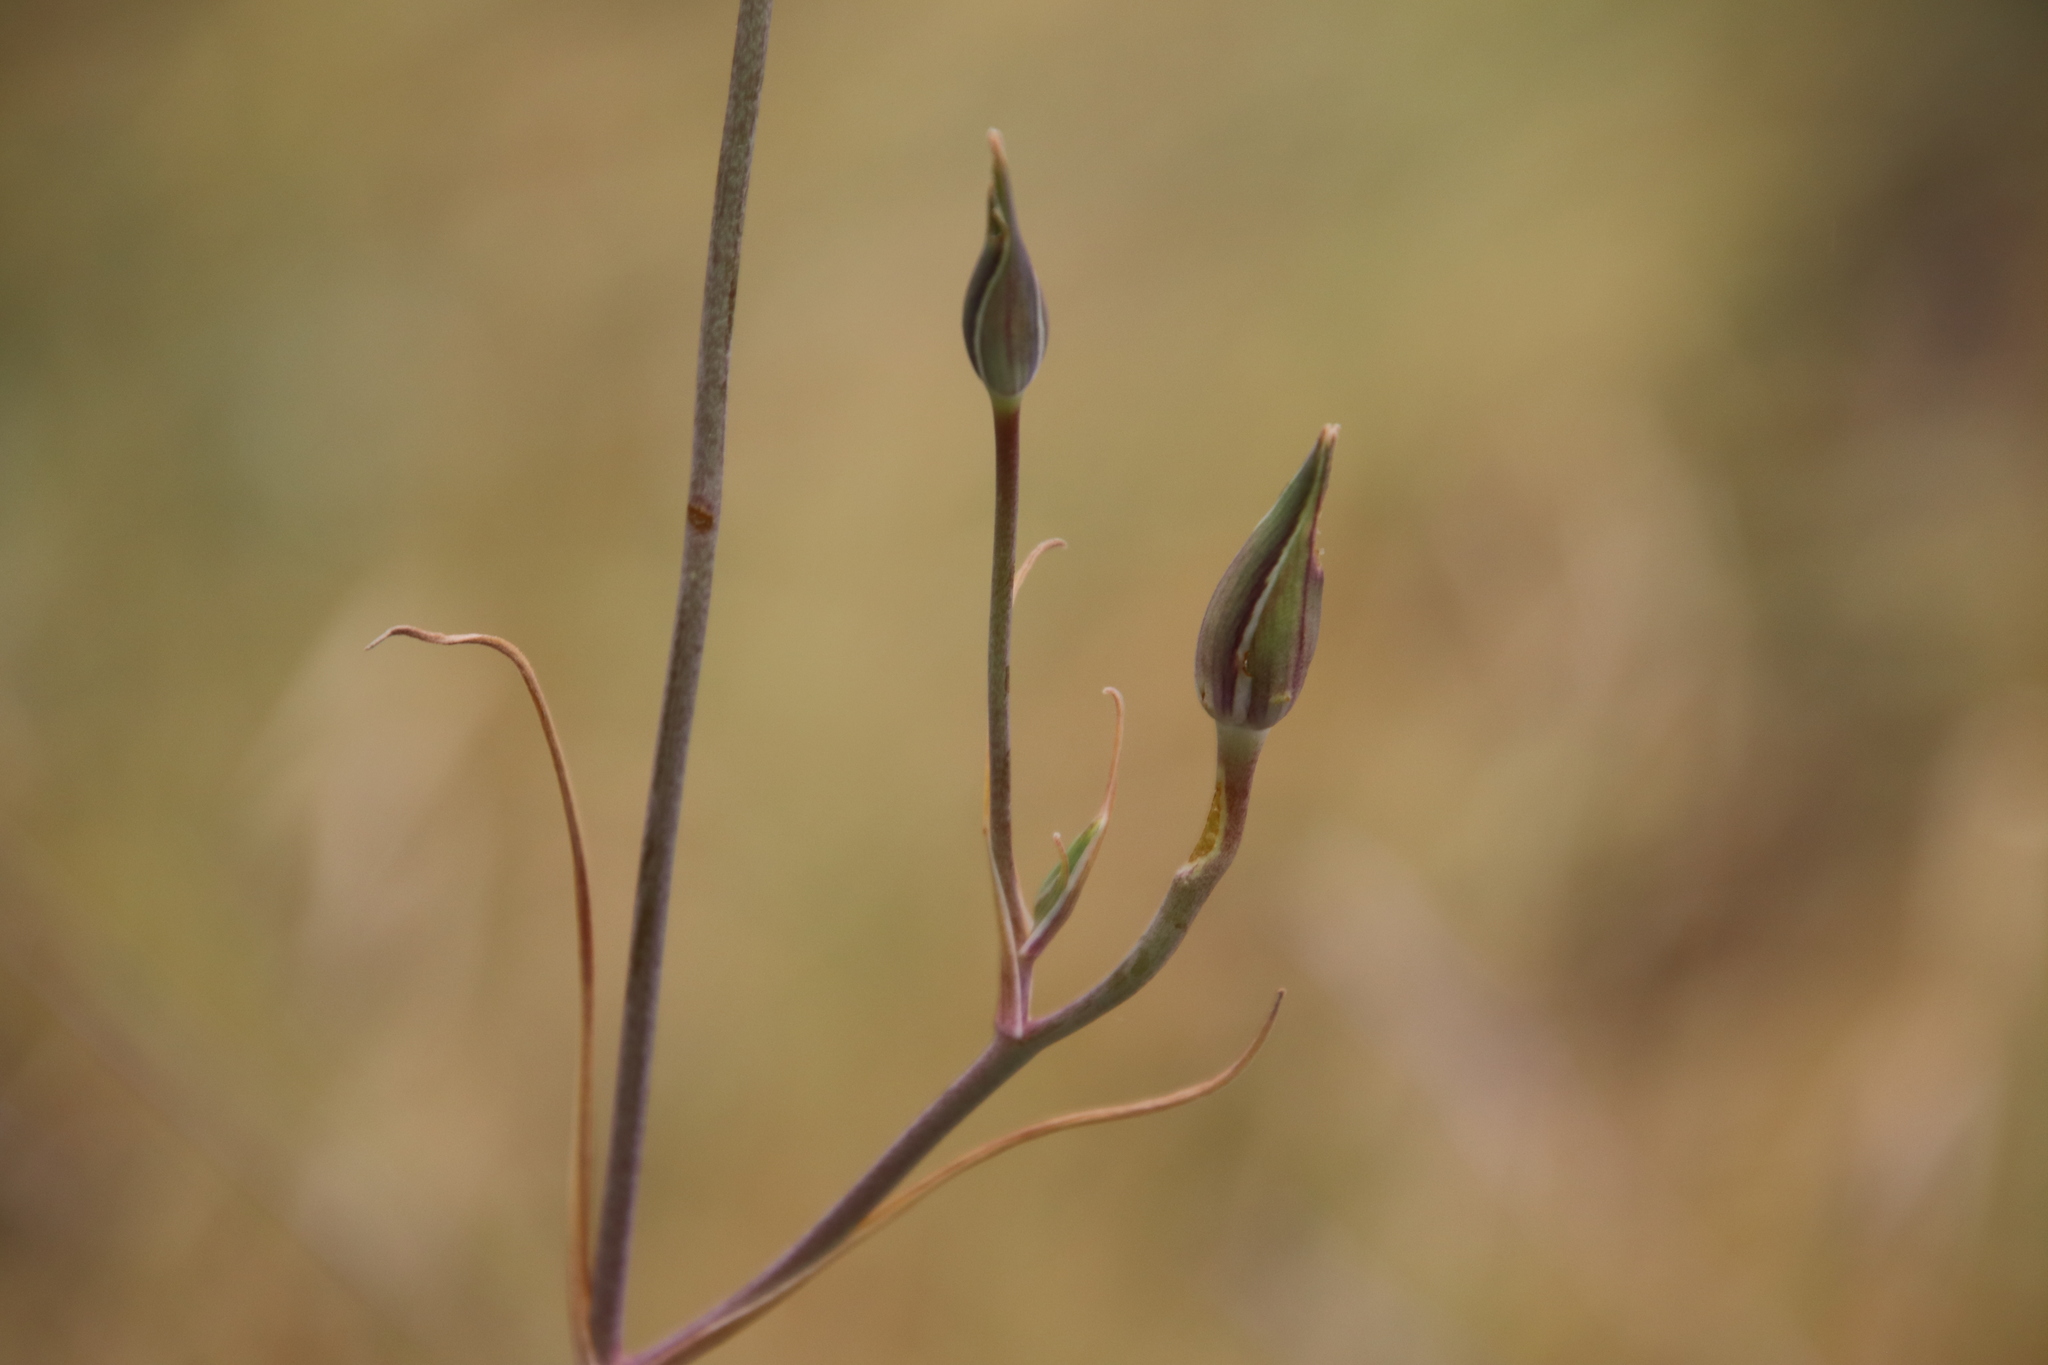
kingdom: Plantae
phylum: Tracheophyta
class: Liliopsida
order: Liliales
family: Liliaceae
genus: Calochortus
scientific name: Calochortus splendens
